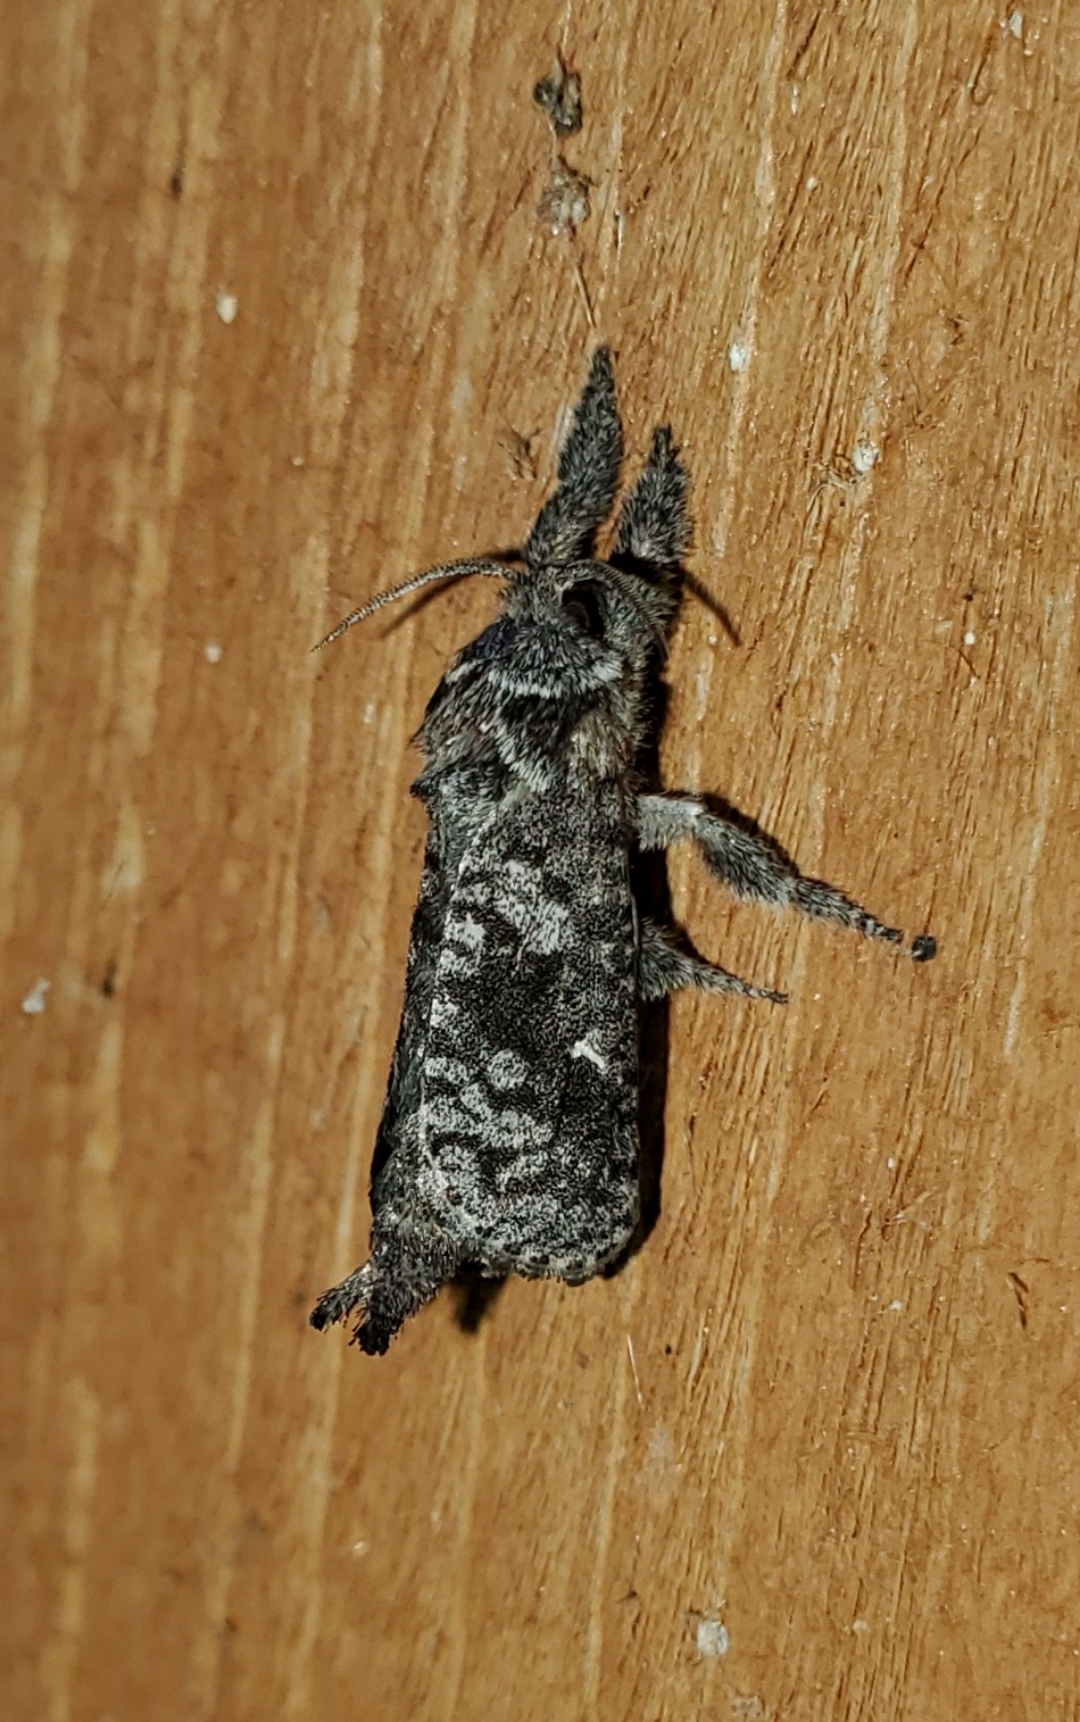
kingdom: Animalia
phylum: Arthropoda
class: Insecta
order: Lepidoptera
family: Cossidae
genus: Givira
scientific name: Givira francesca
